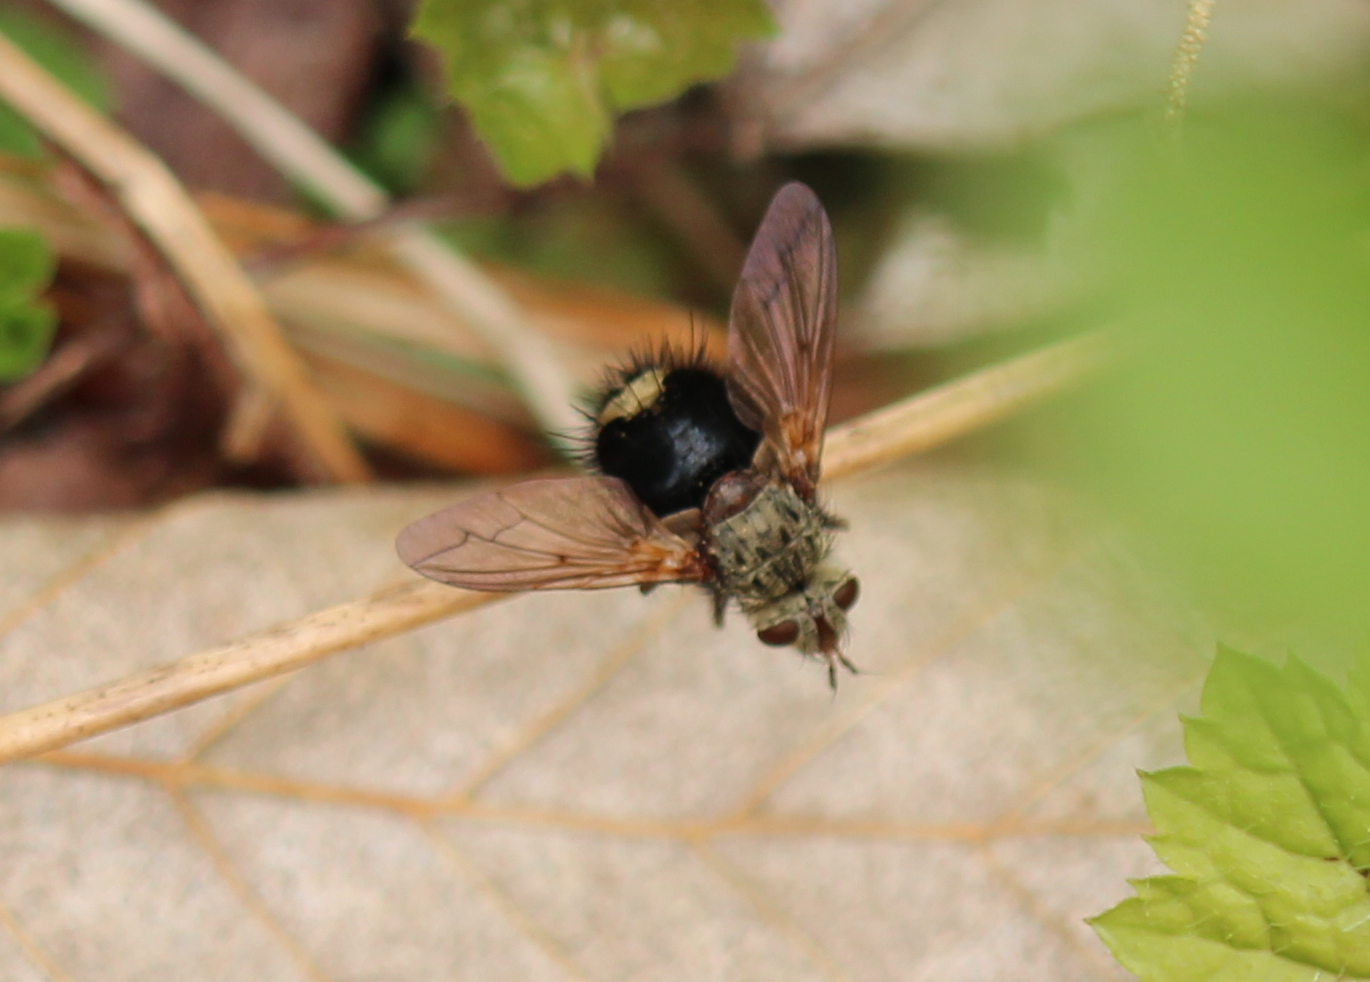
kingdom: Animalia
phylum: Arthropoda
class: Insecta
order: Diptera
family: Tachinidae
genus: Epalpus
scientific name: Epalpus signifer
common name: Early tachinid fly
